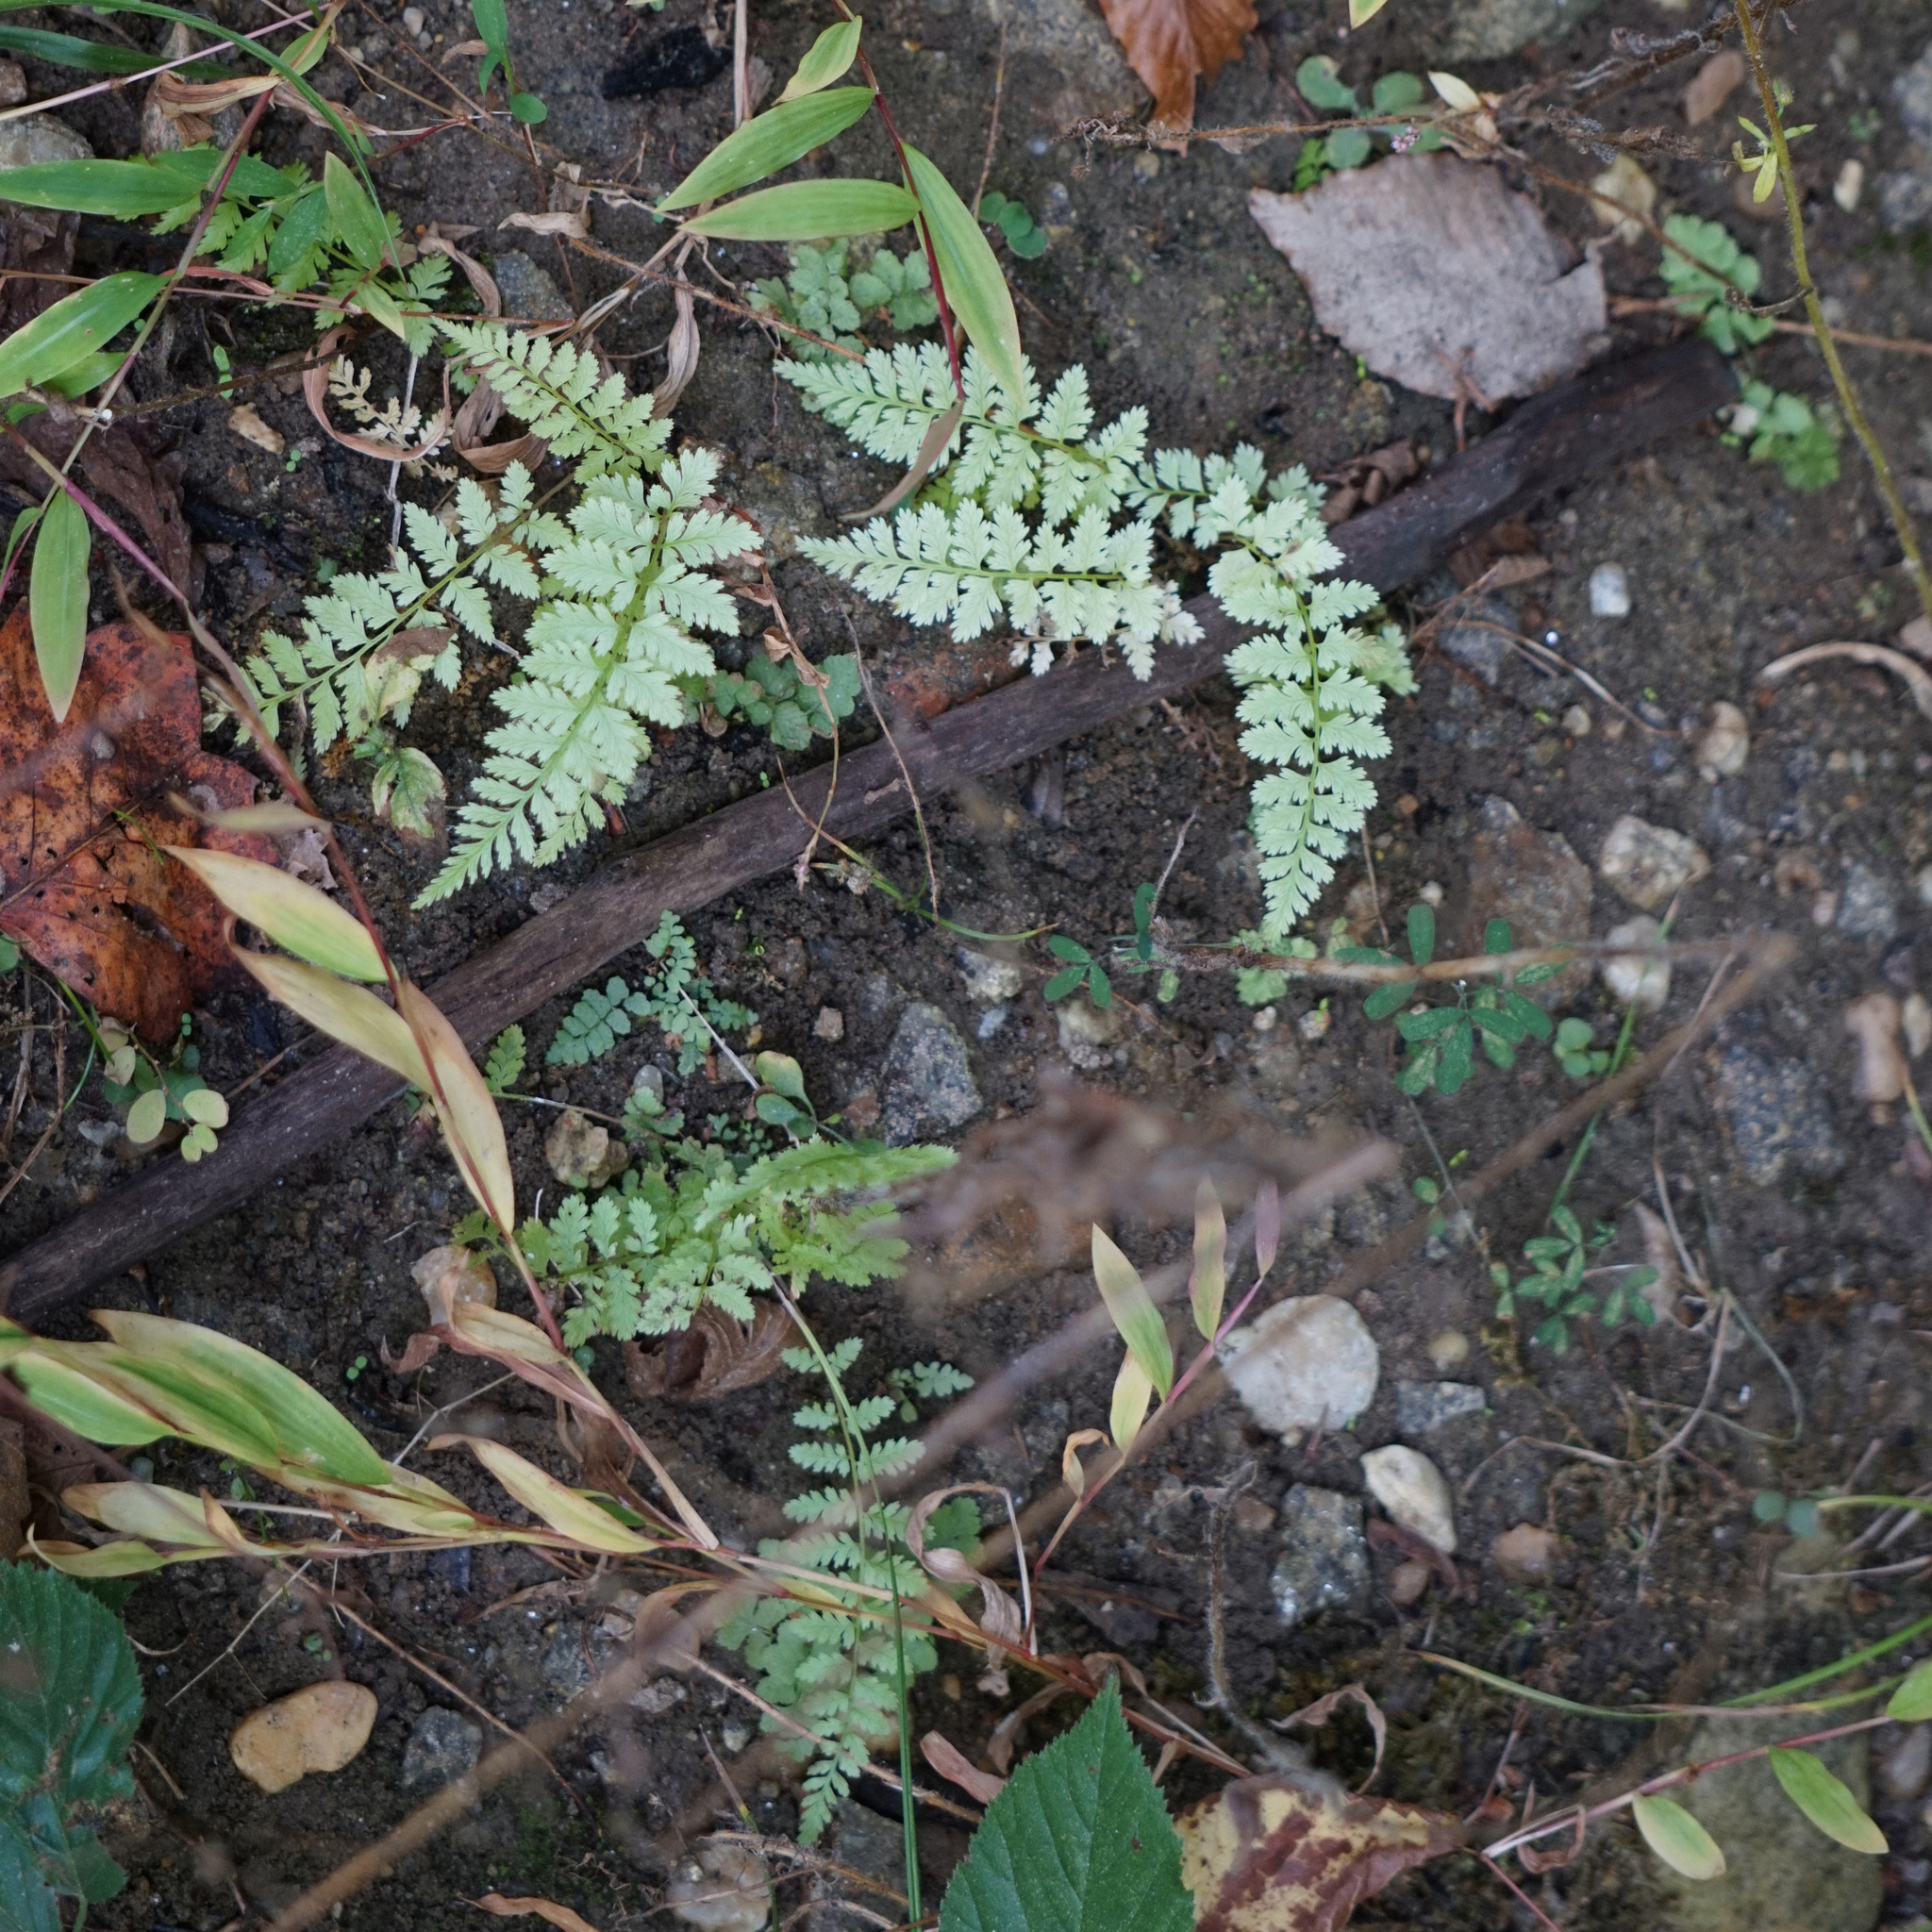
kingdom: Plantae
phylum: Tracheophyta
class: Polypodiopsida
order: Polypodiales
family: Athyriaceae
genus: Athyrium
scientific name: Athyrium asplenioides
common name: Southern lady fern
